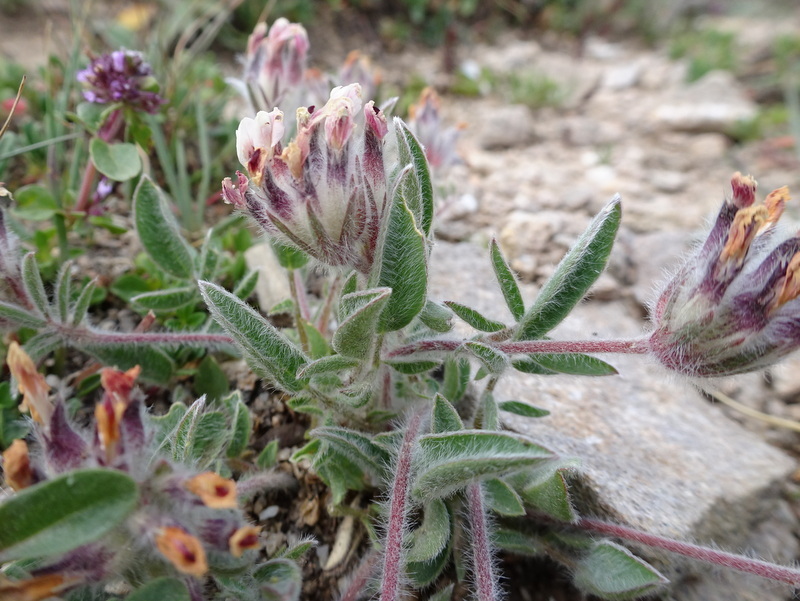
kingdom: Plantae
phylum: Tracheophyta
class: Magnoliopsida
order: Fabales
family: Fabaceae
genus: Anthyllis
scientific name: Anthyllis vulneraria
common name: Kidney vetch
